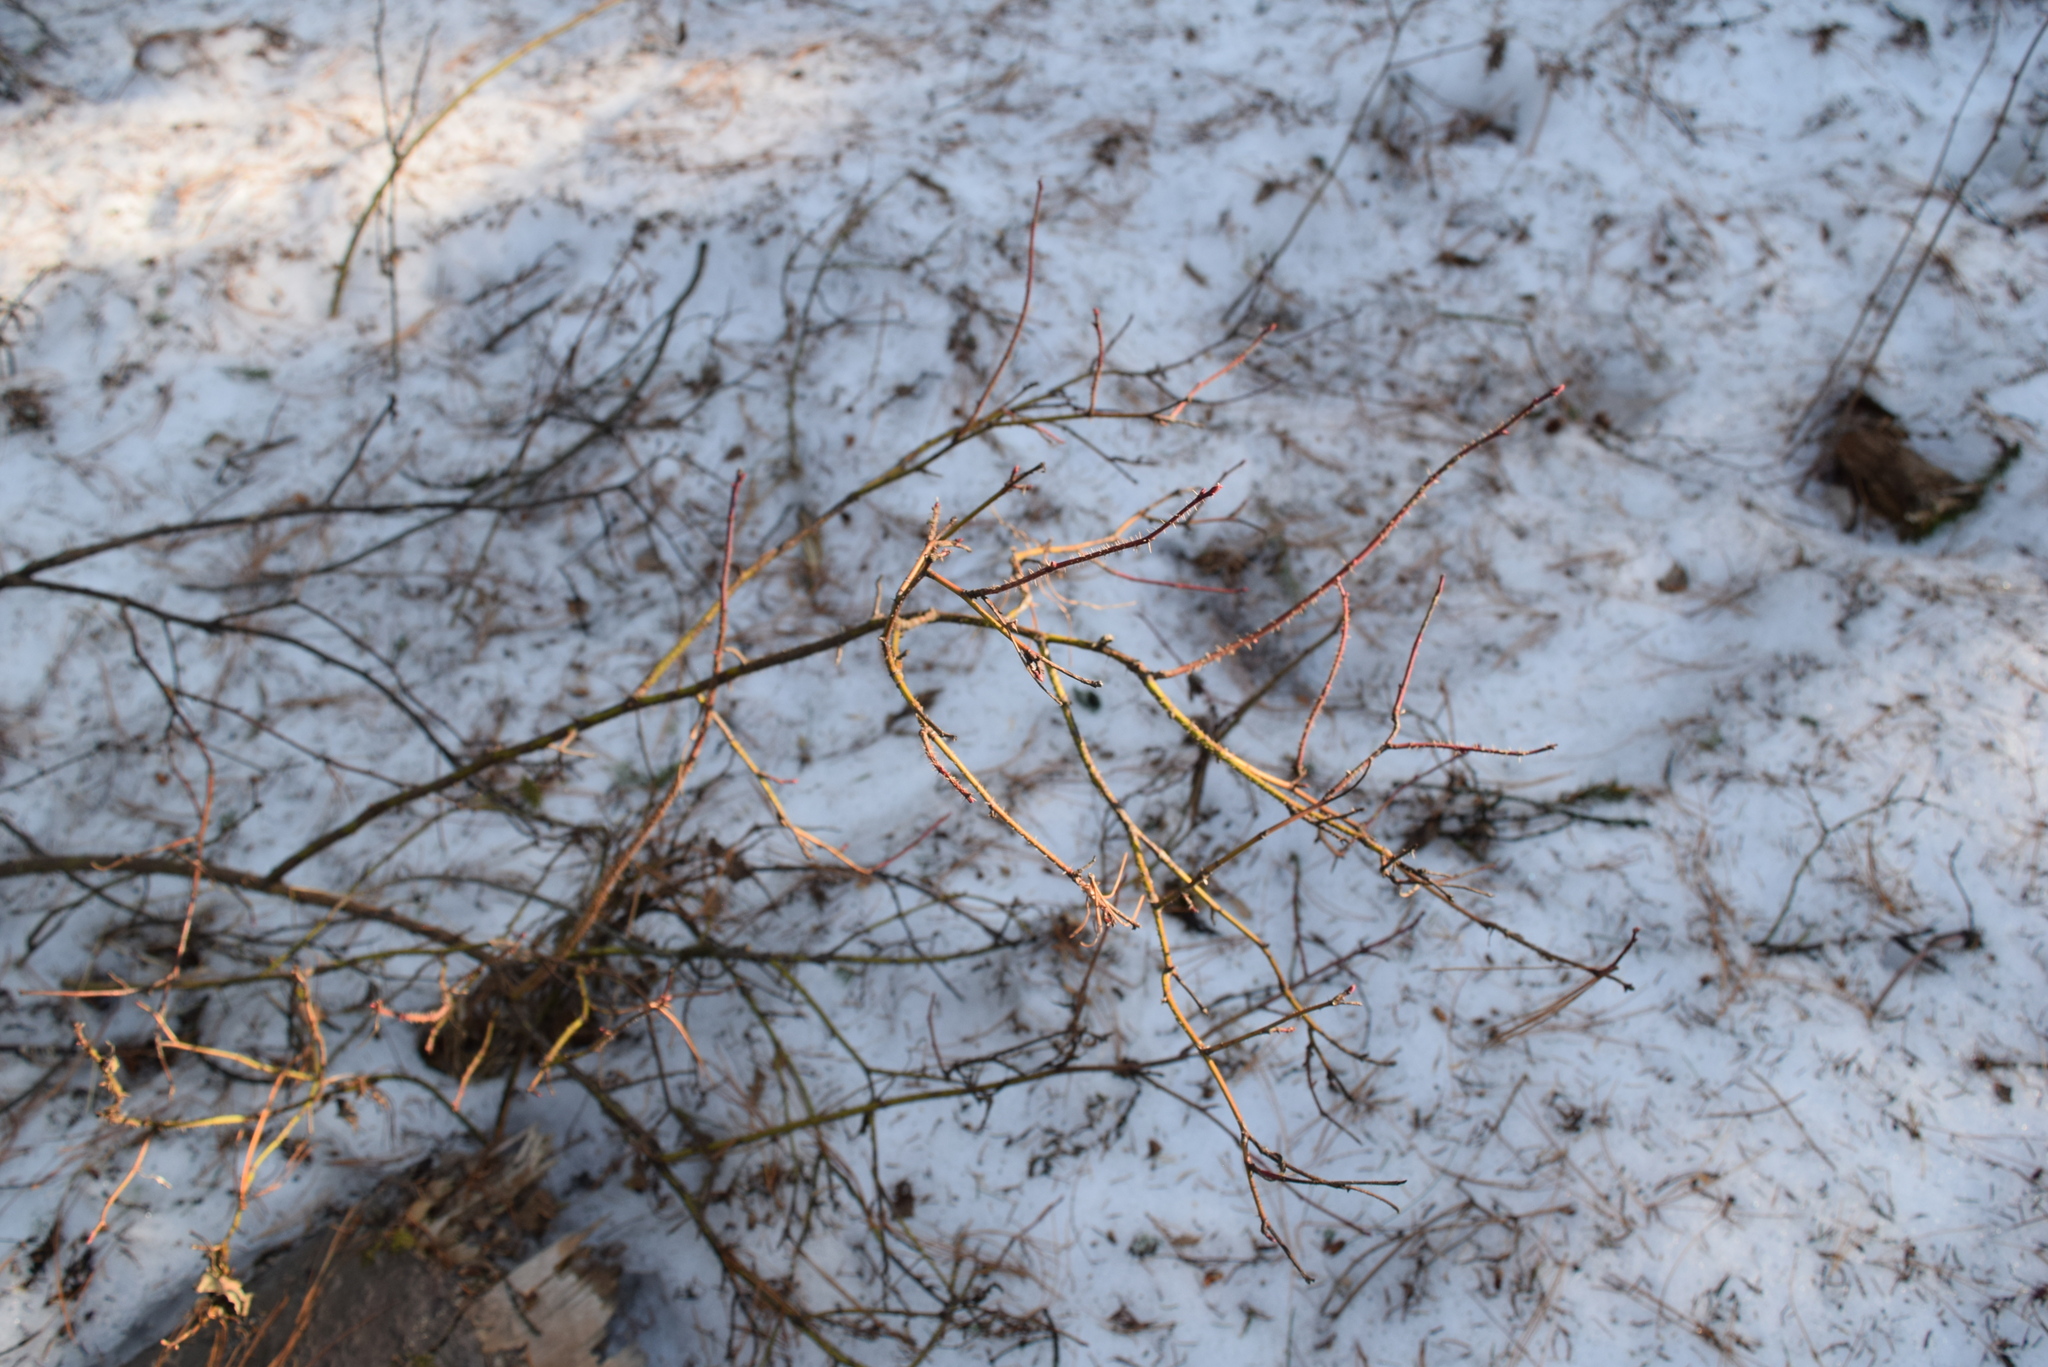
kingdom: Plantae
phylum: Tracheophyta
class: Magnoliopsida
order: Rosales
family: Rosaceae
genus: Rosa
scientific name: Rosa acicularis
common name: Prickly rose
